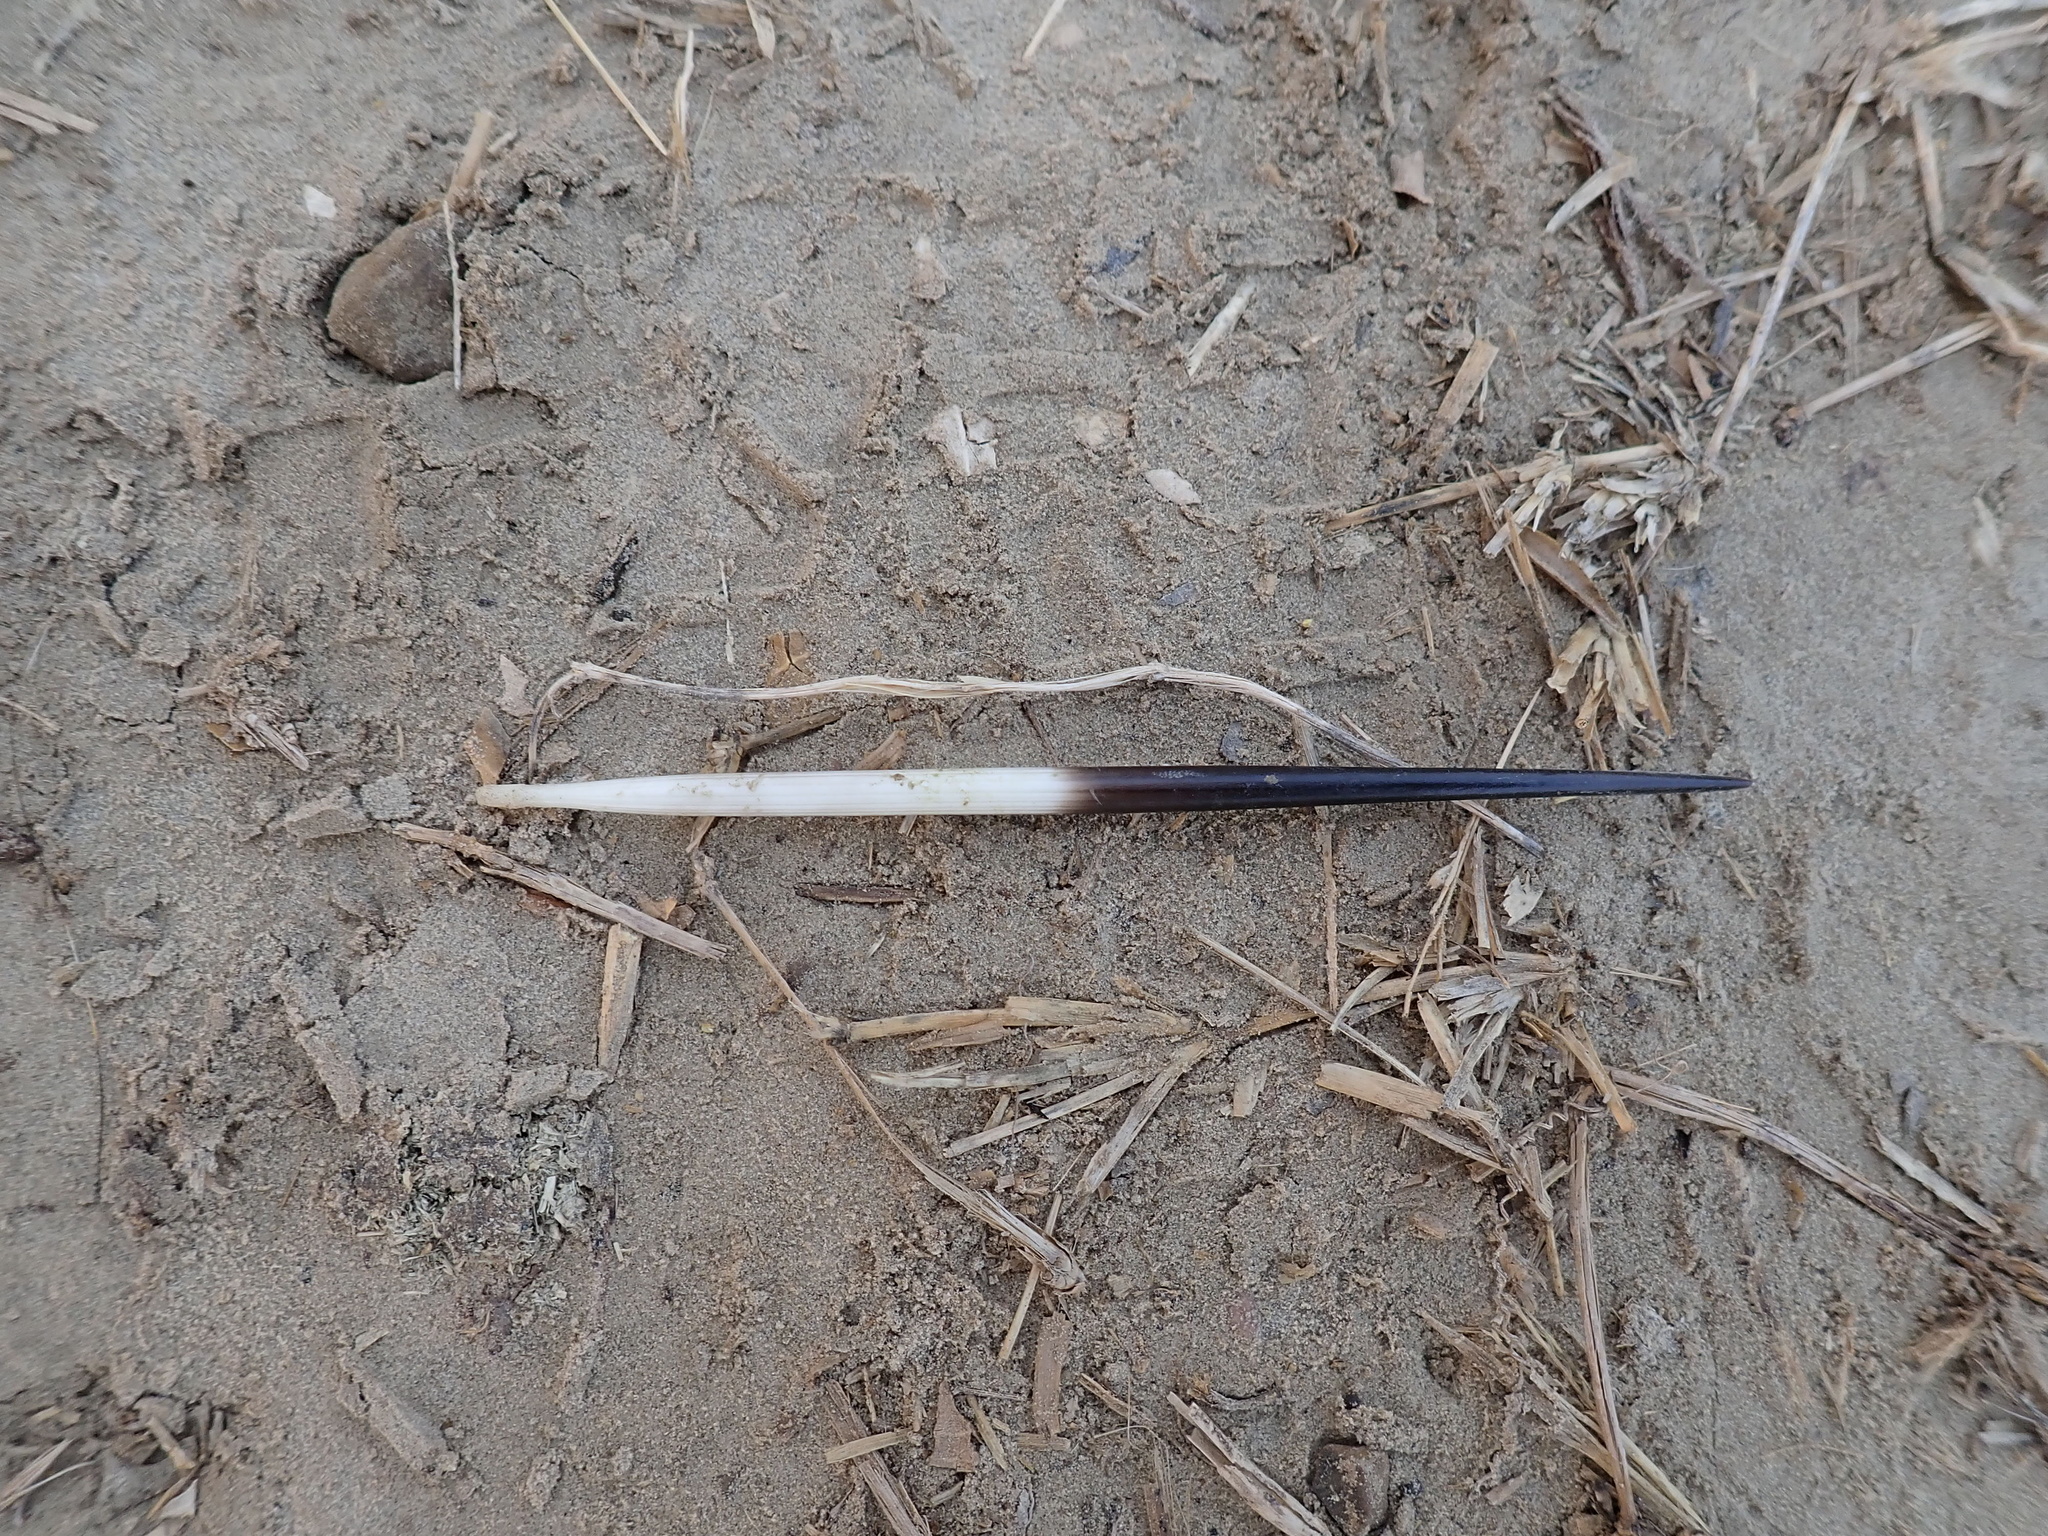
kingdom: Animalia
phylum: Chordata
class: Mammalia
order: Rodentia
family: Hystricidae
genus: Hystrix
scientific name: Hystrix indica
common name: Indian crested porcupine
